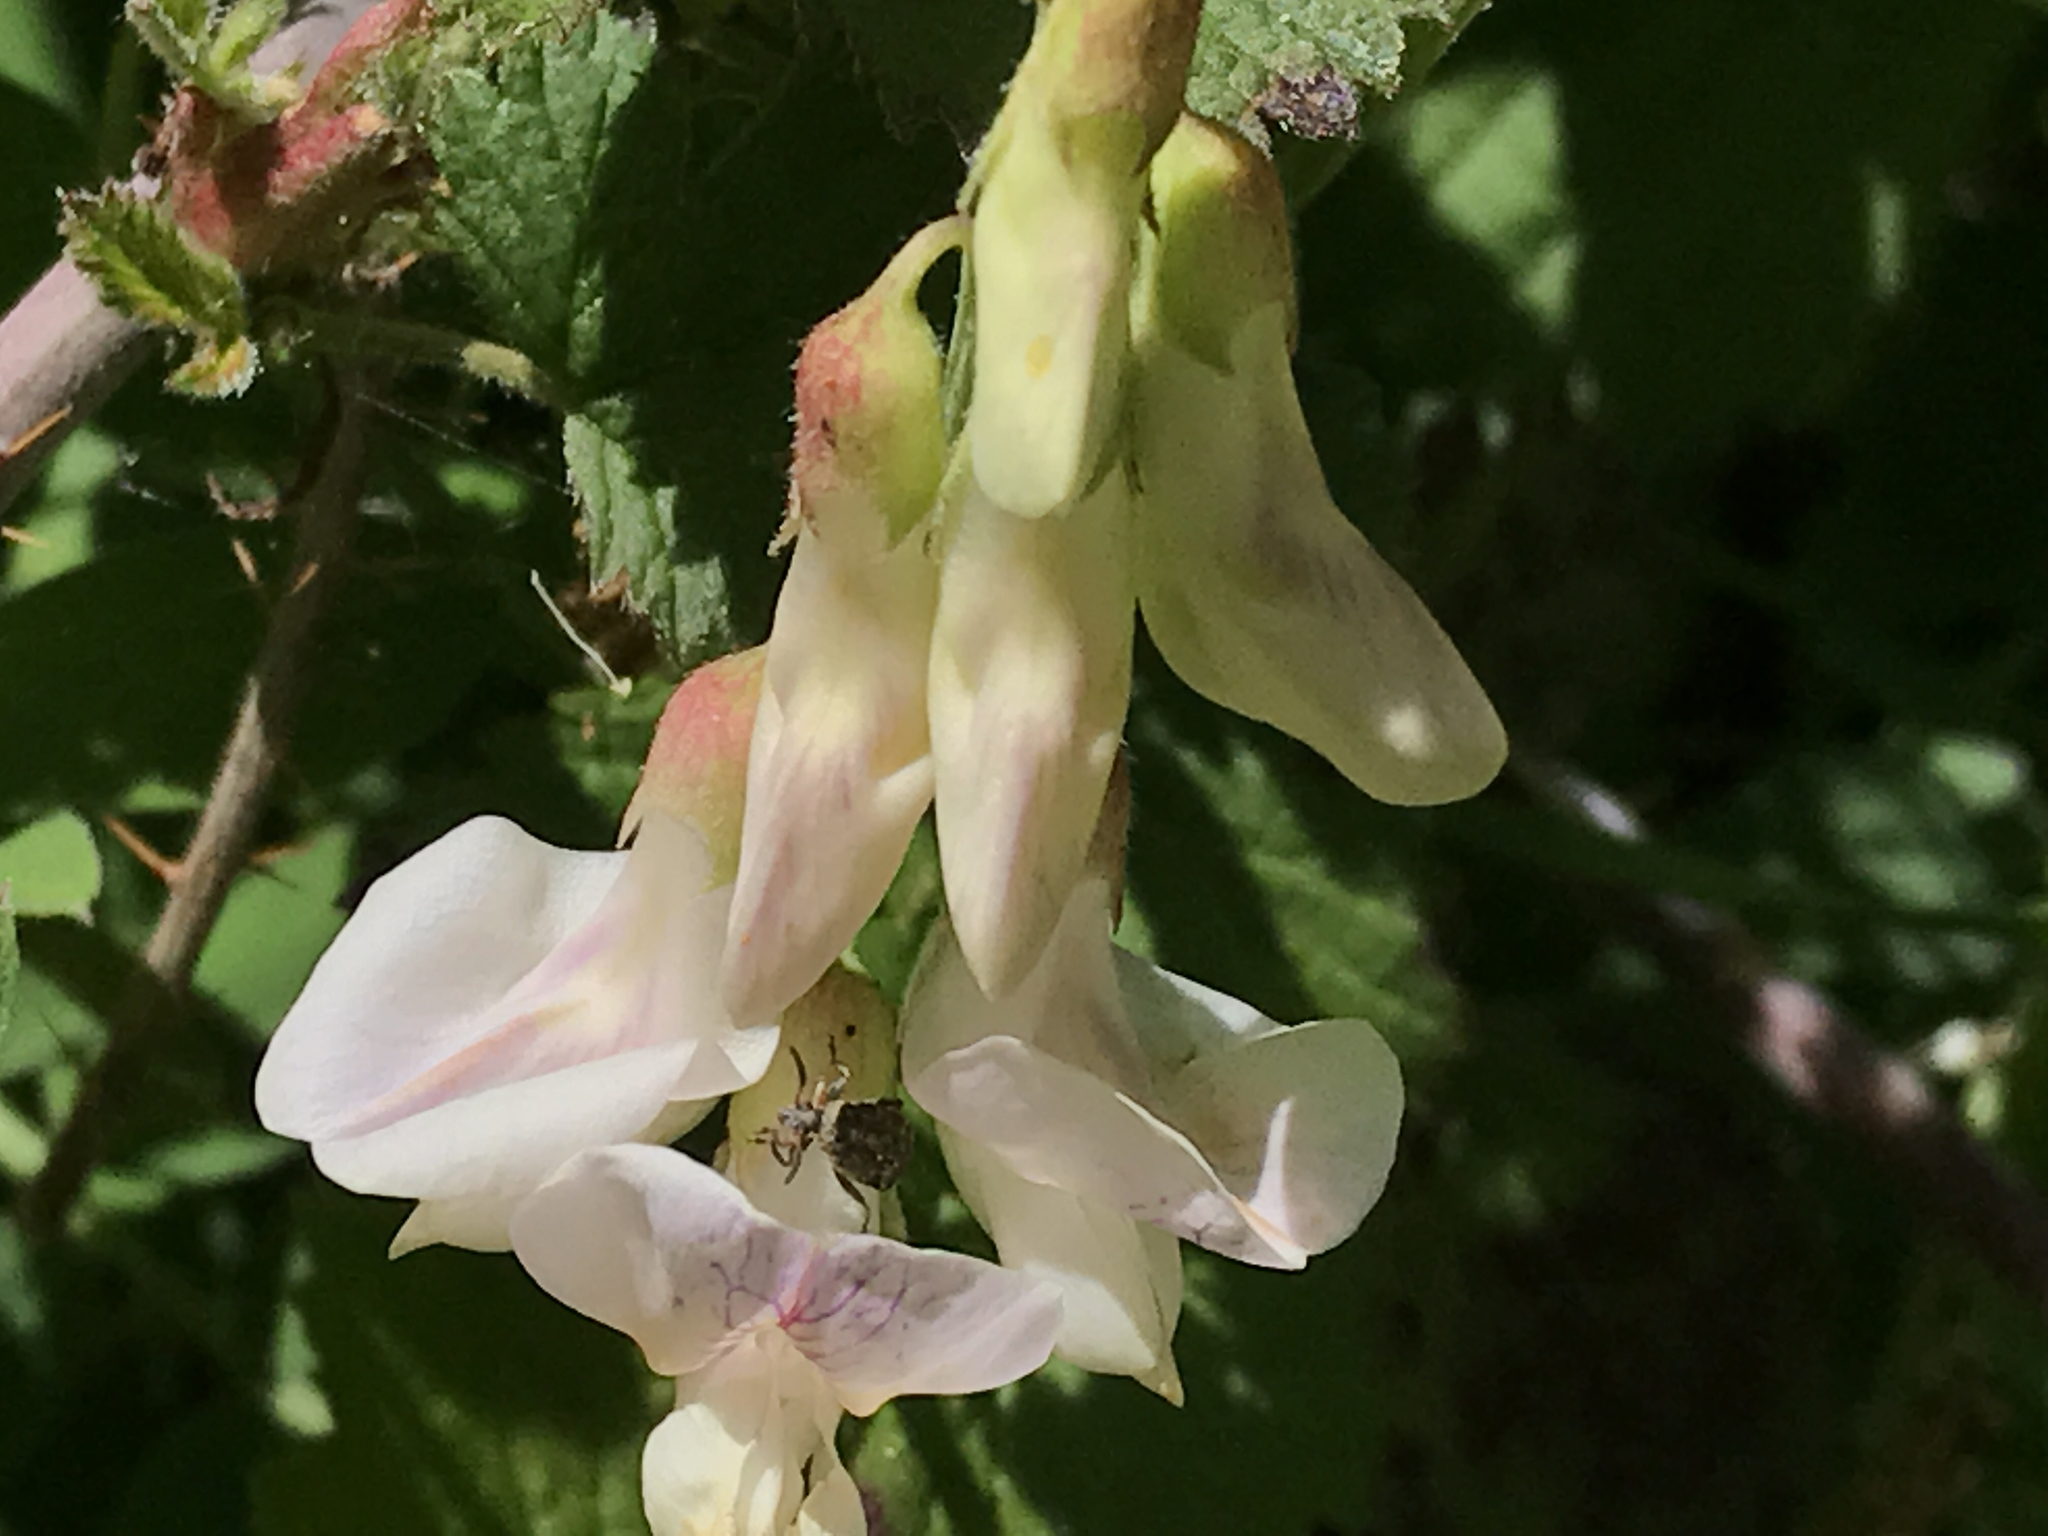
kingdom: Plantae
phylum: Tracheophyta
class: Magnoliopsida
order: Fabales
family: Fabaceae
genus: Lathyrus
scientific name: Lathyrus vestitus
